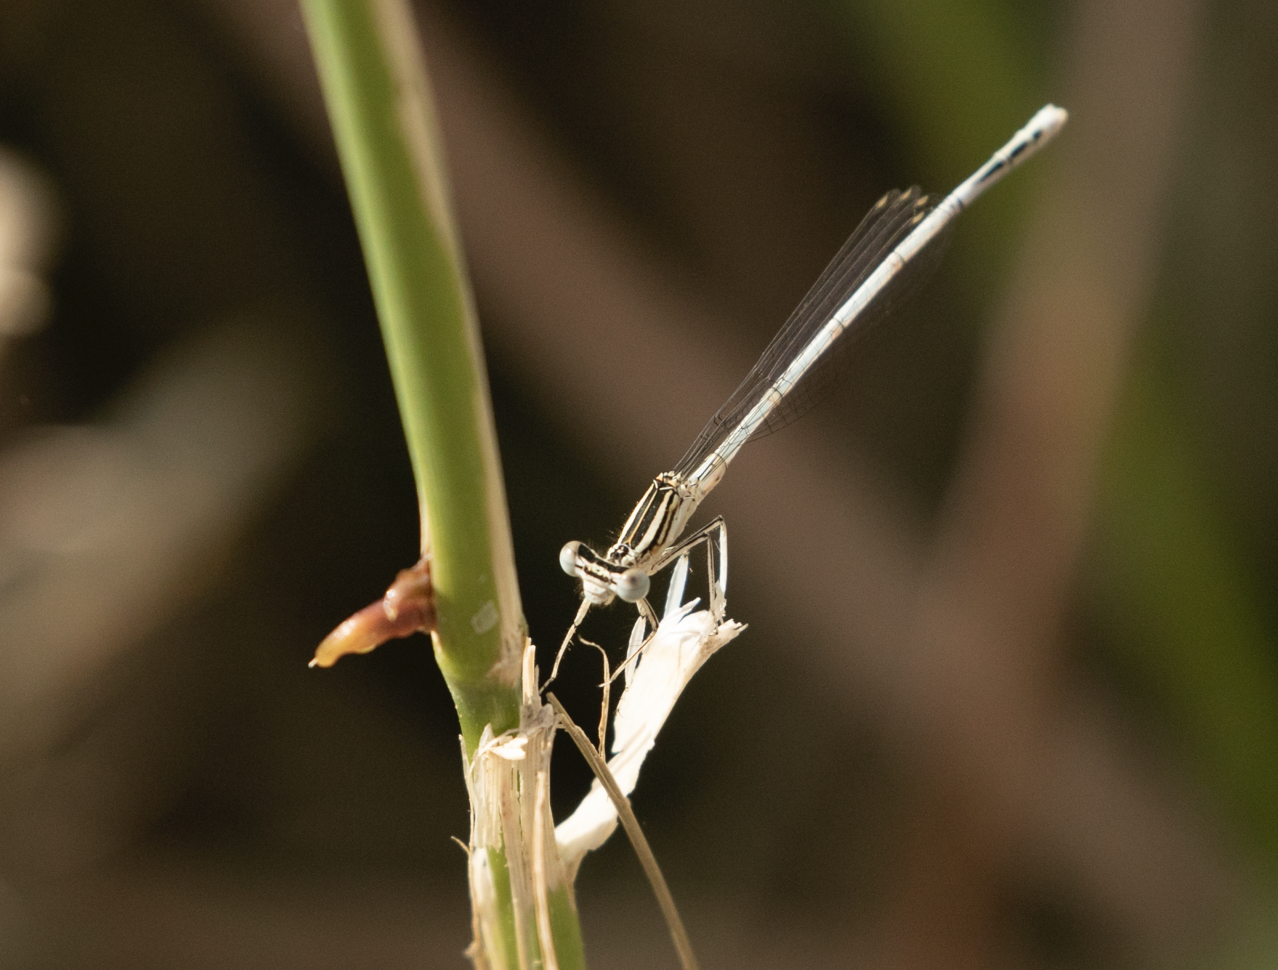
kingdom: Animalia
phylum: Arthropoda
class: Insecta
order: Odonata
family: Platycnemididae
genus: Platycnemis
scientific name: Platycnemis pennipes
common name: White-legged damselfly
